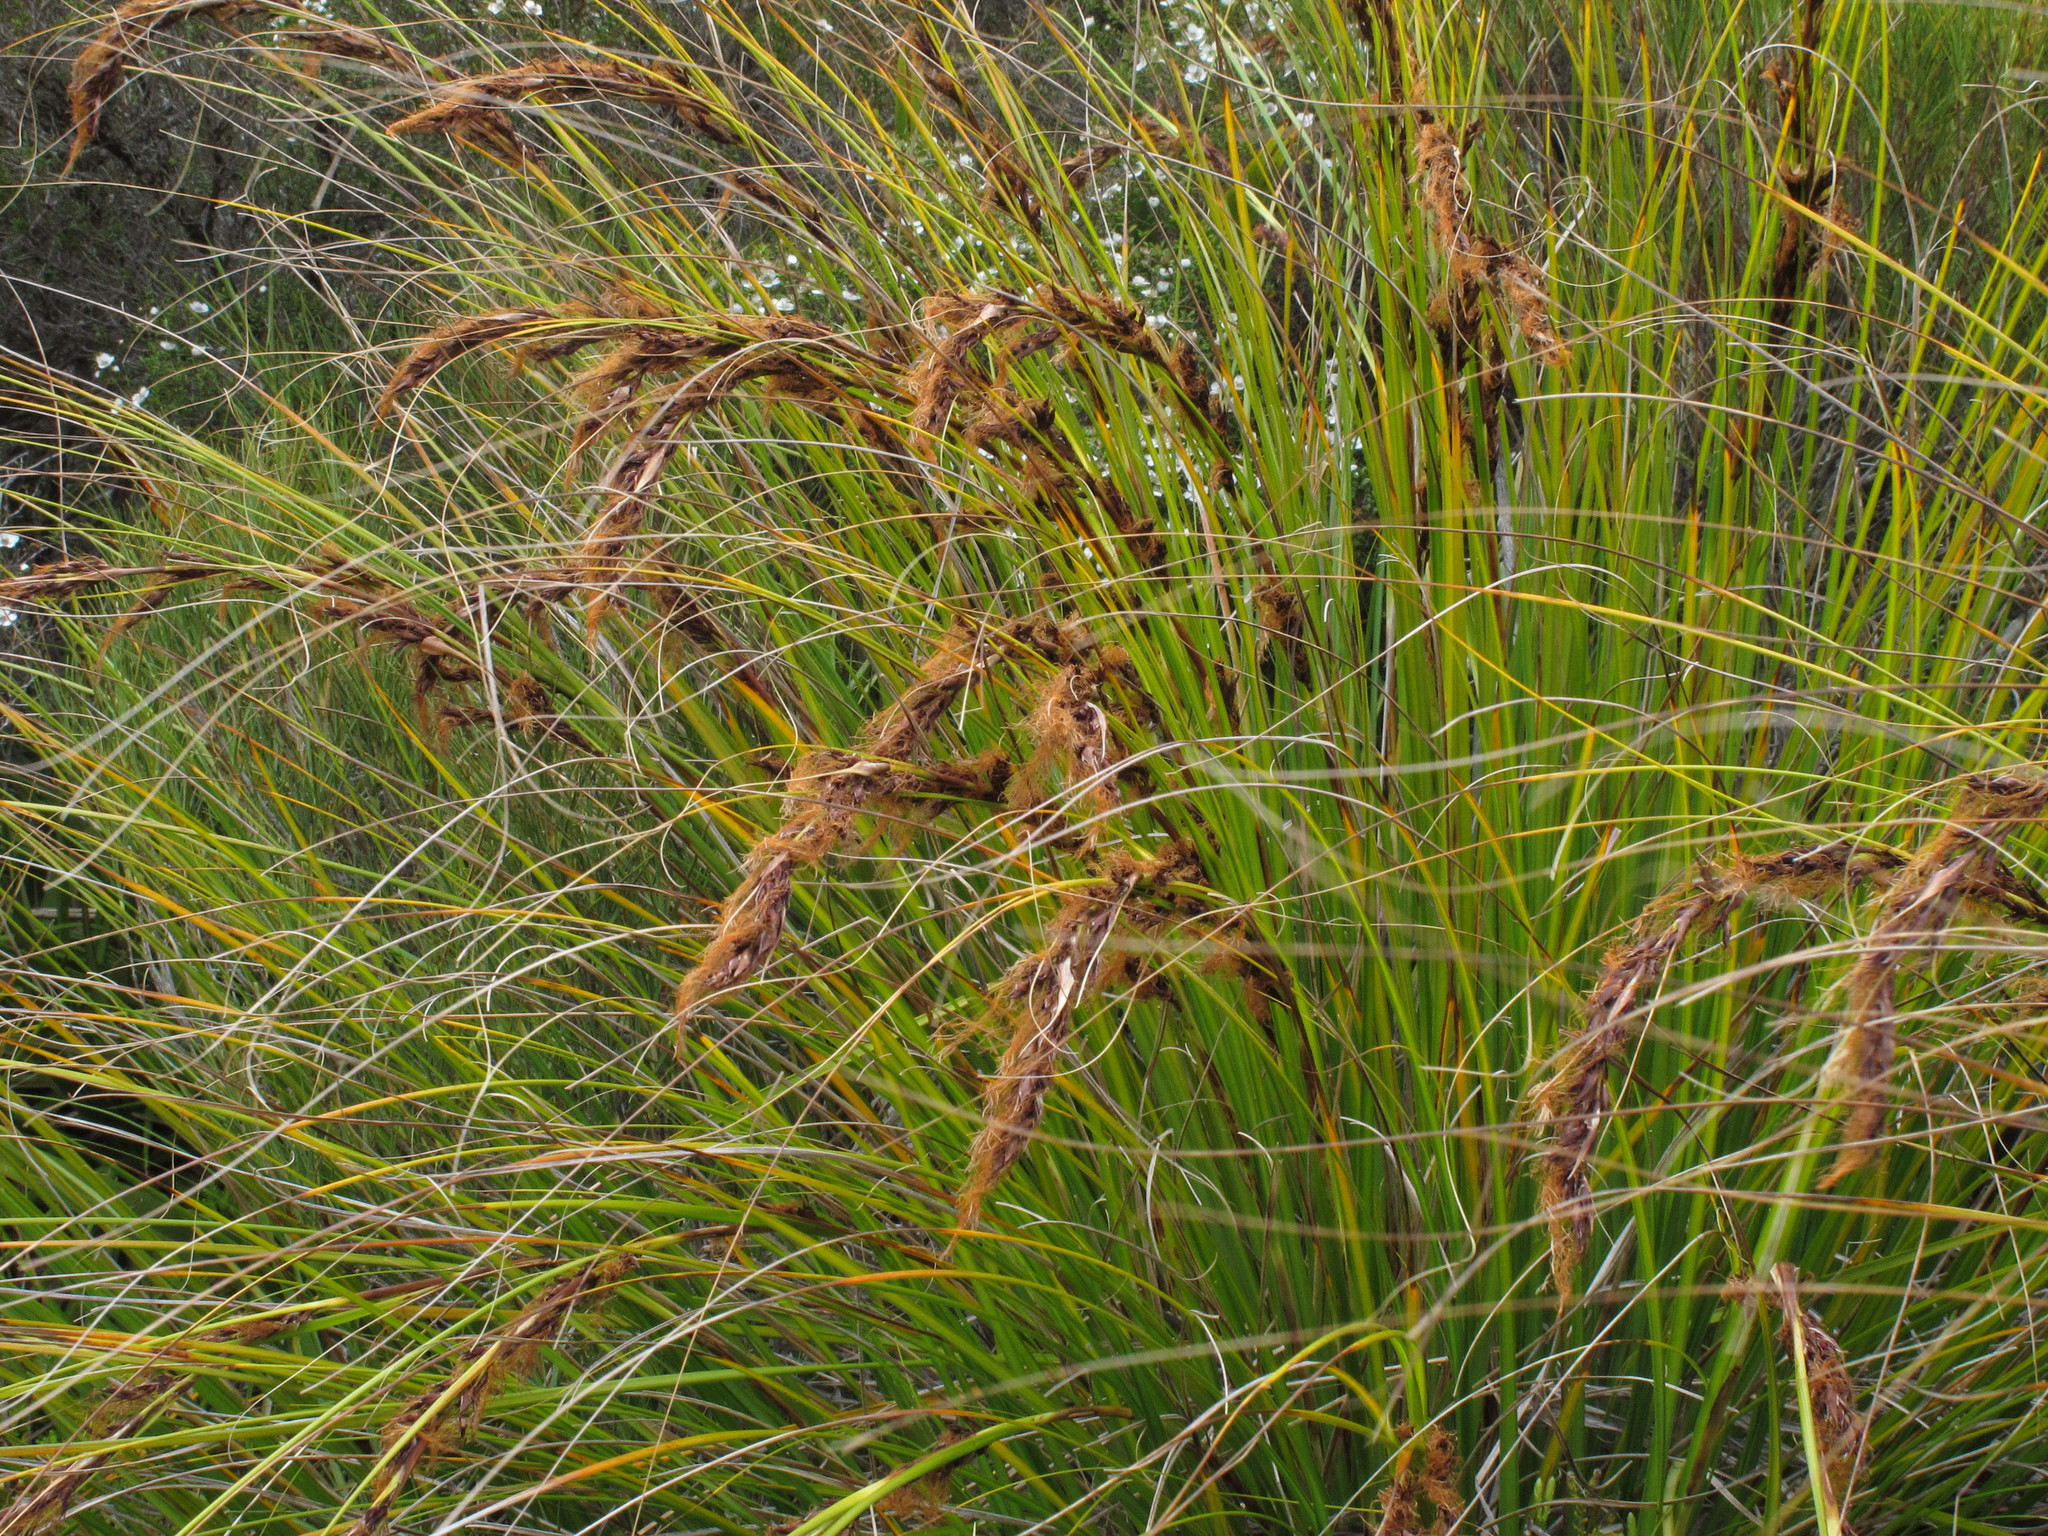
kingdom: Plantae
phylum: Tracheophyta
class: Liliopsida
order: Poales
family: Cyperaceae
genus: Gahnia
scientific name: Gahnia procera
